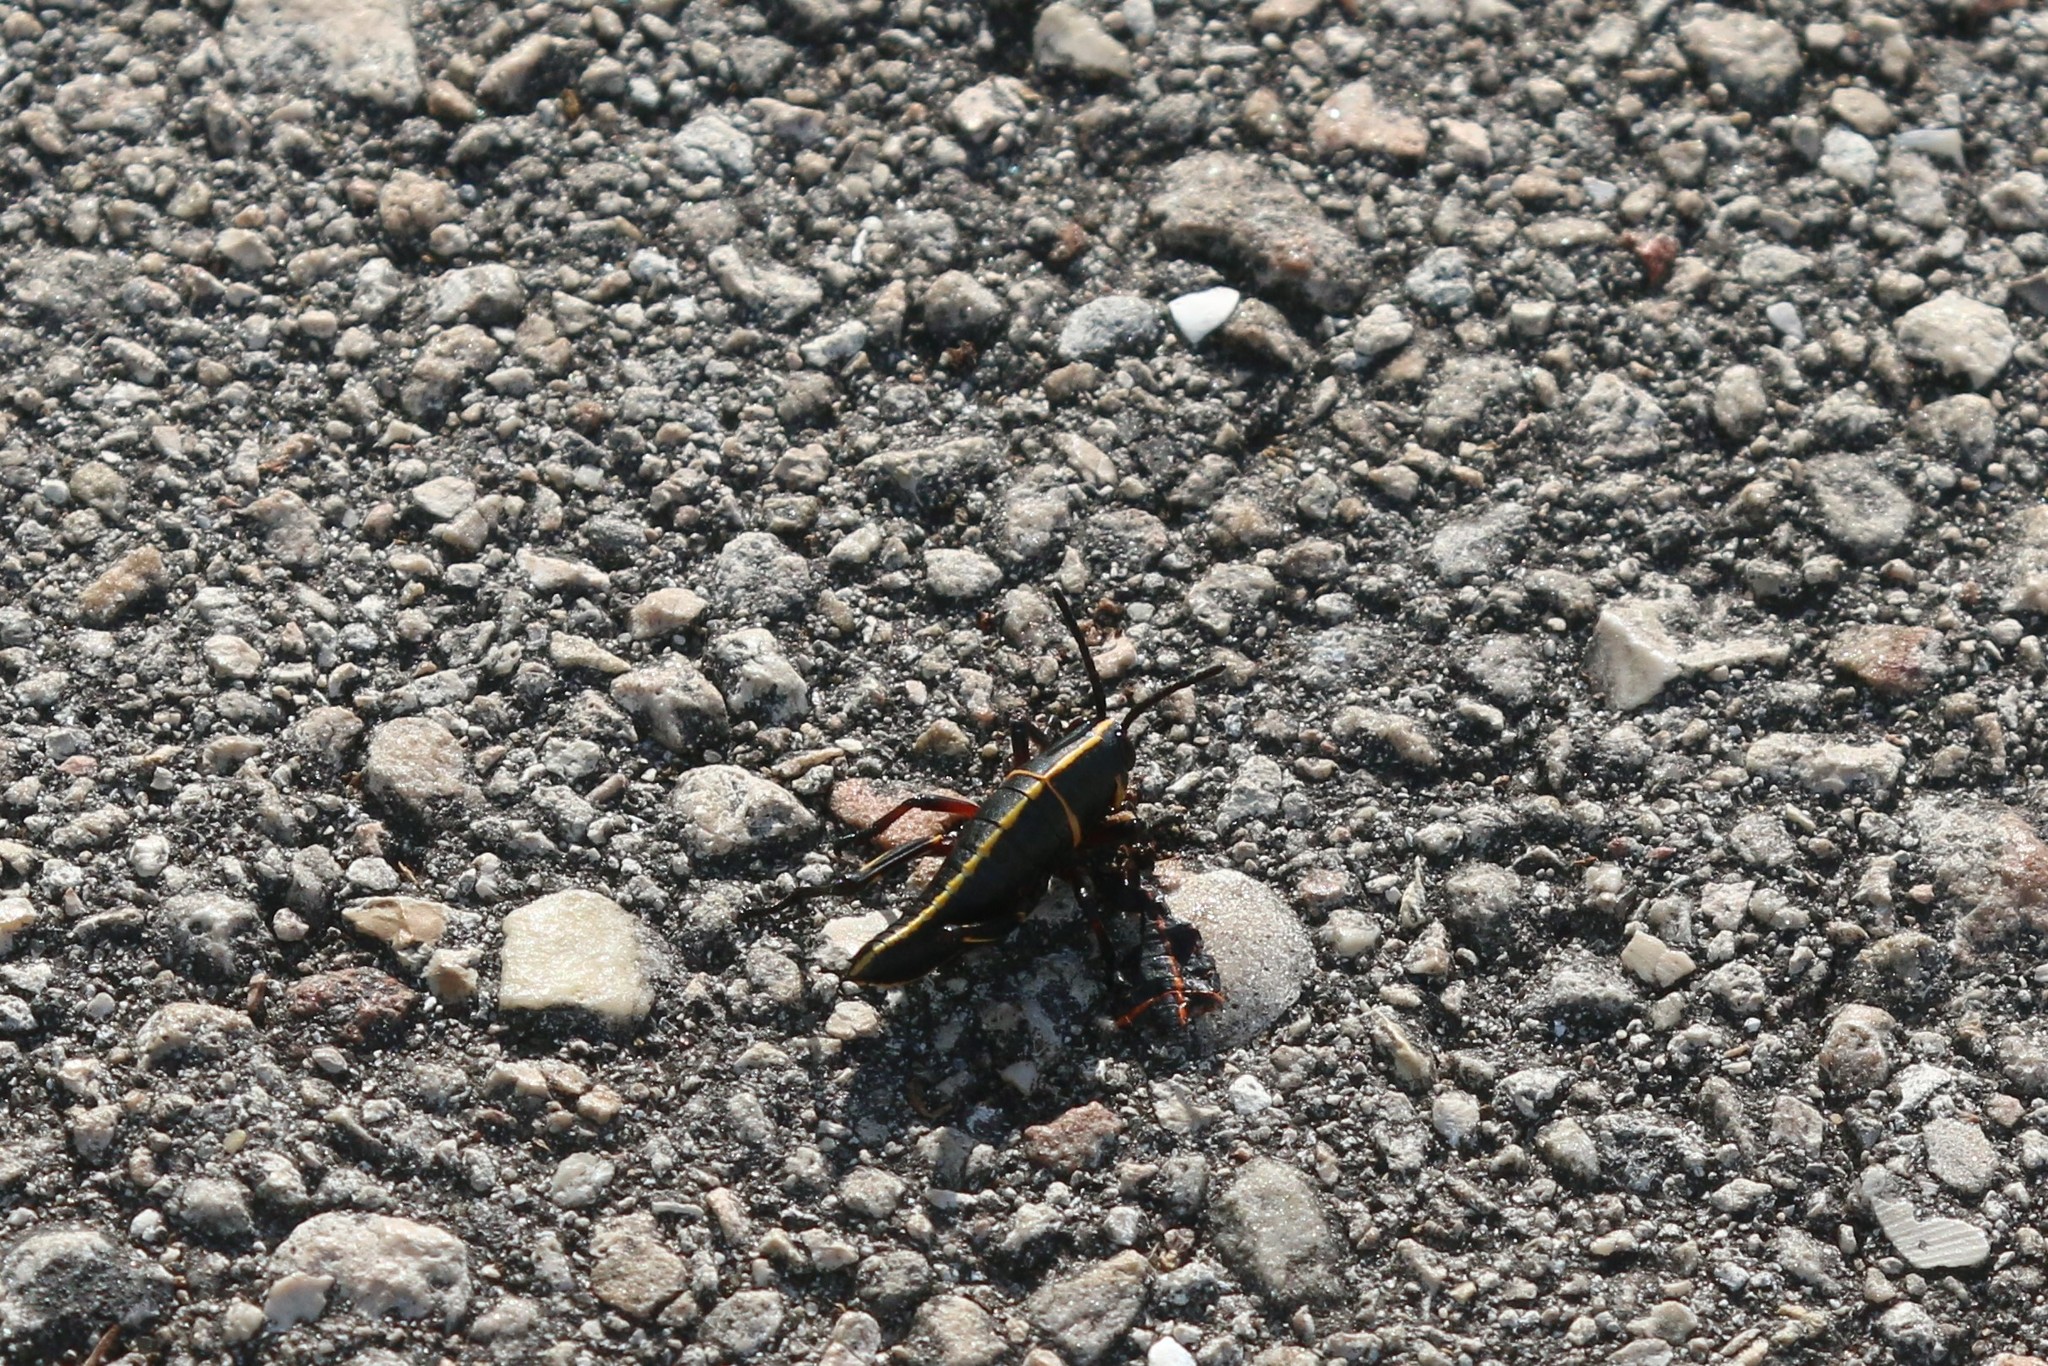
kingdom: Animalia
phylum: Arthropoda
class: Insecta
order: Orthoptera
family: Romaleidae
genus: Romalea
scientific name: Romalea microptera
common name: Eastern lubber grasshopper
